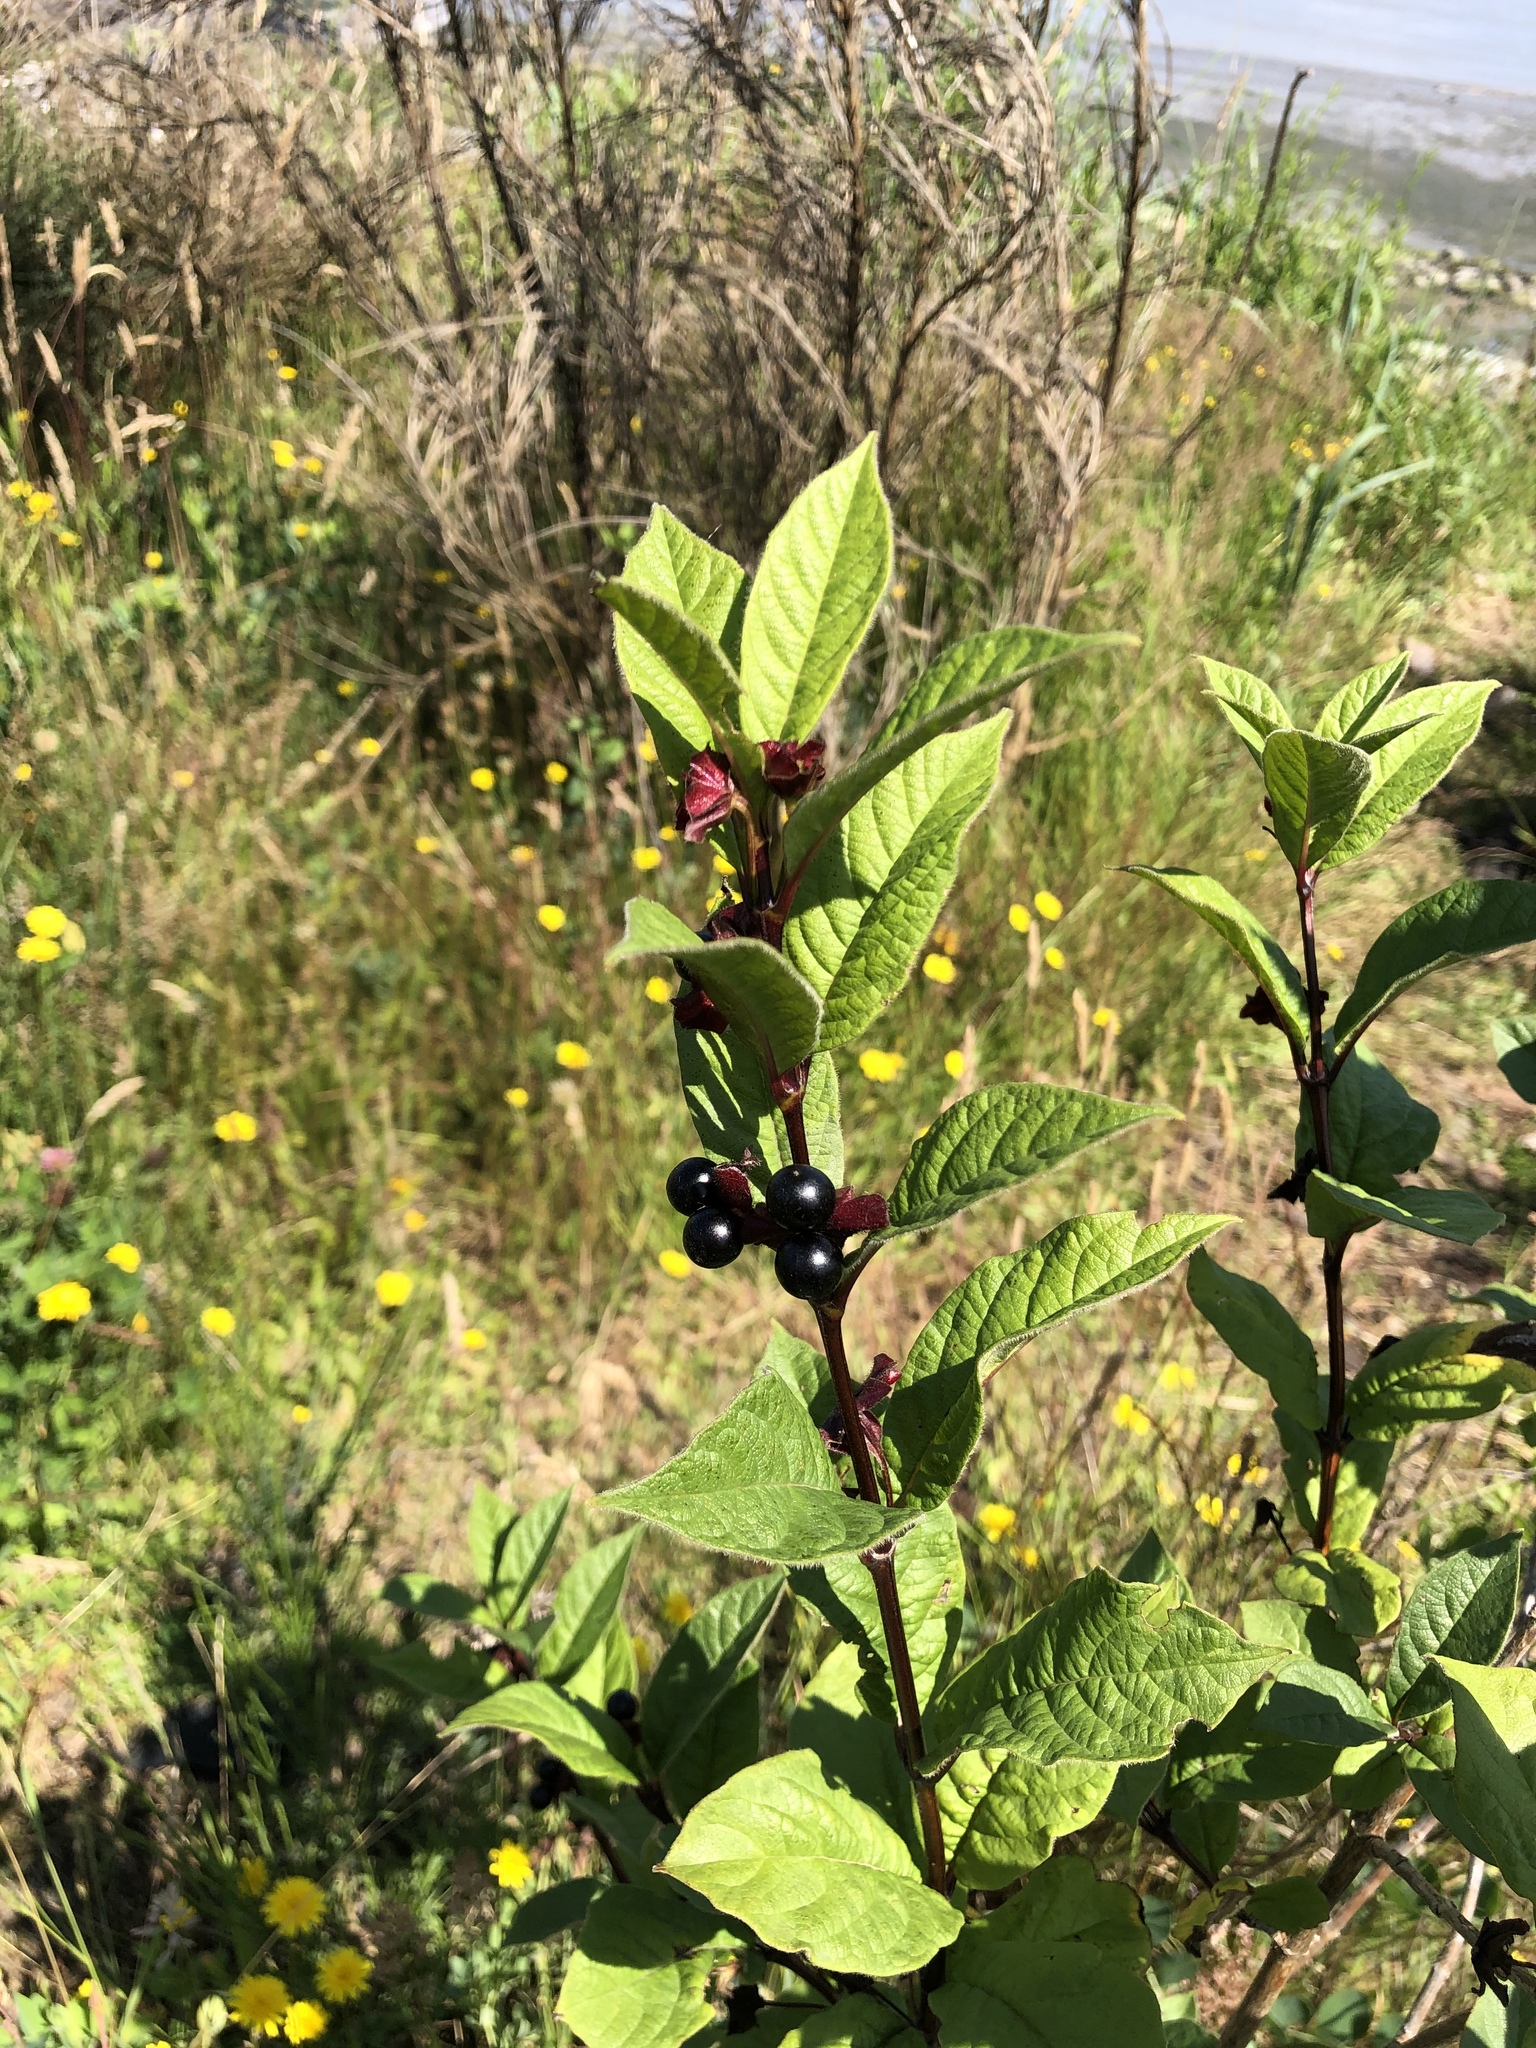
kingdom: Plantae
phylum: Tracheophyta
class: Magnoliopsida
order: Dipsacales
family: Caprifoliaceae
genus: Lonicera
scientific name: Lonicera involucrata
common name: Californian honeysuckle
